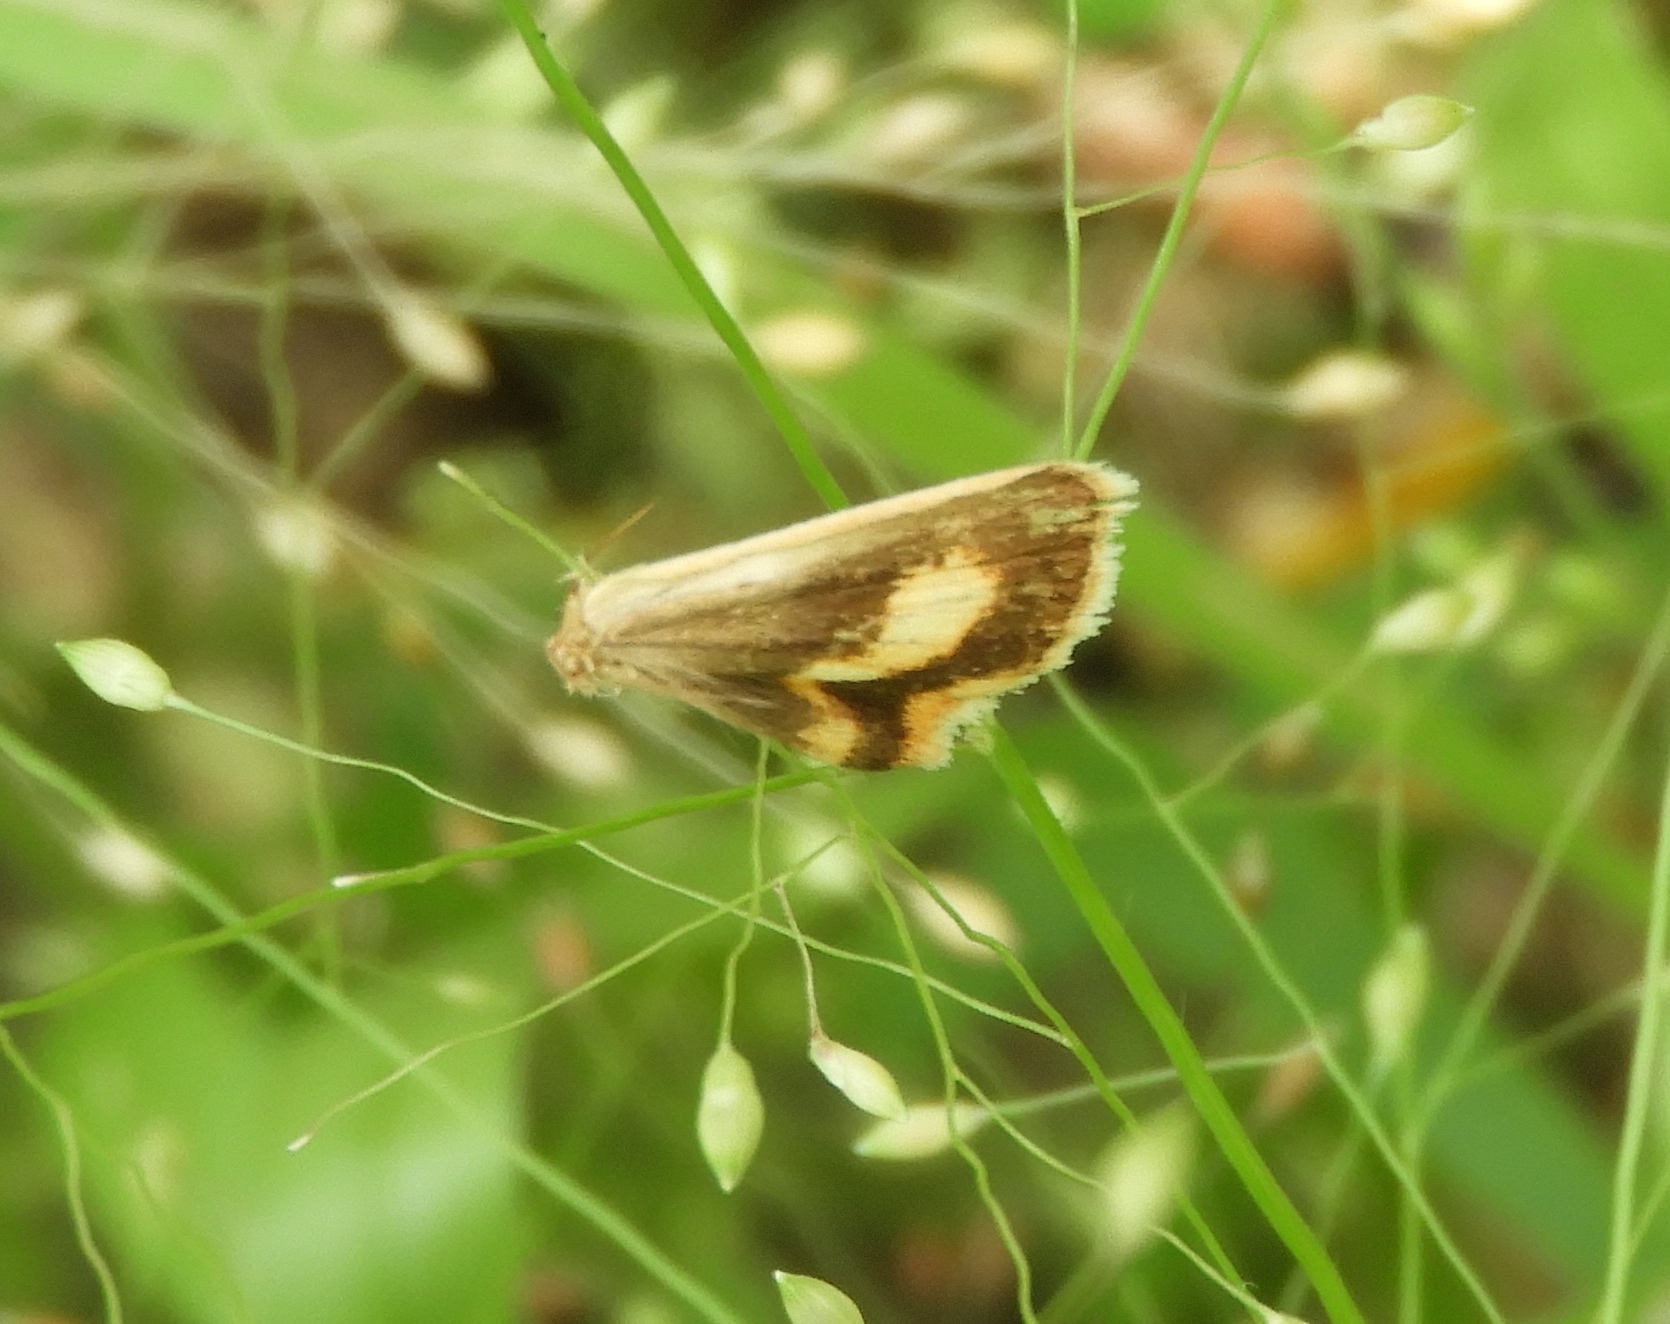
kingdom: Animalia
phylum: Arthropoda
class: Insecta
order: Lepidoptera
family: Erebidae
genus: Melipotis
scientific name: Melipotis
